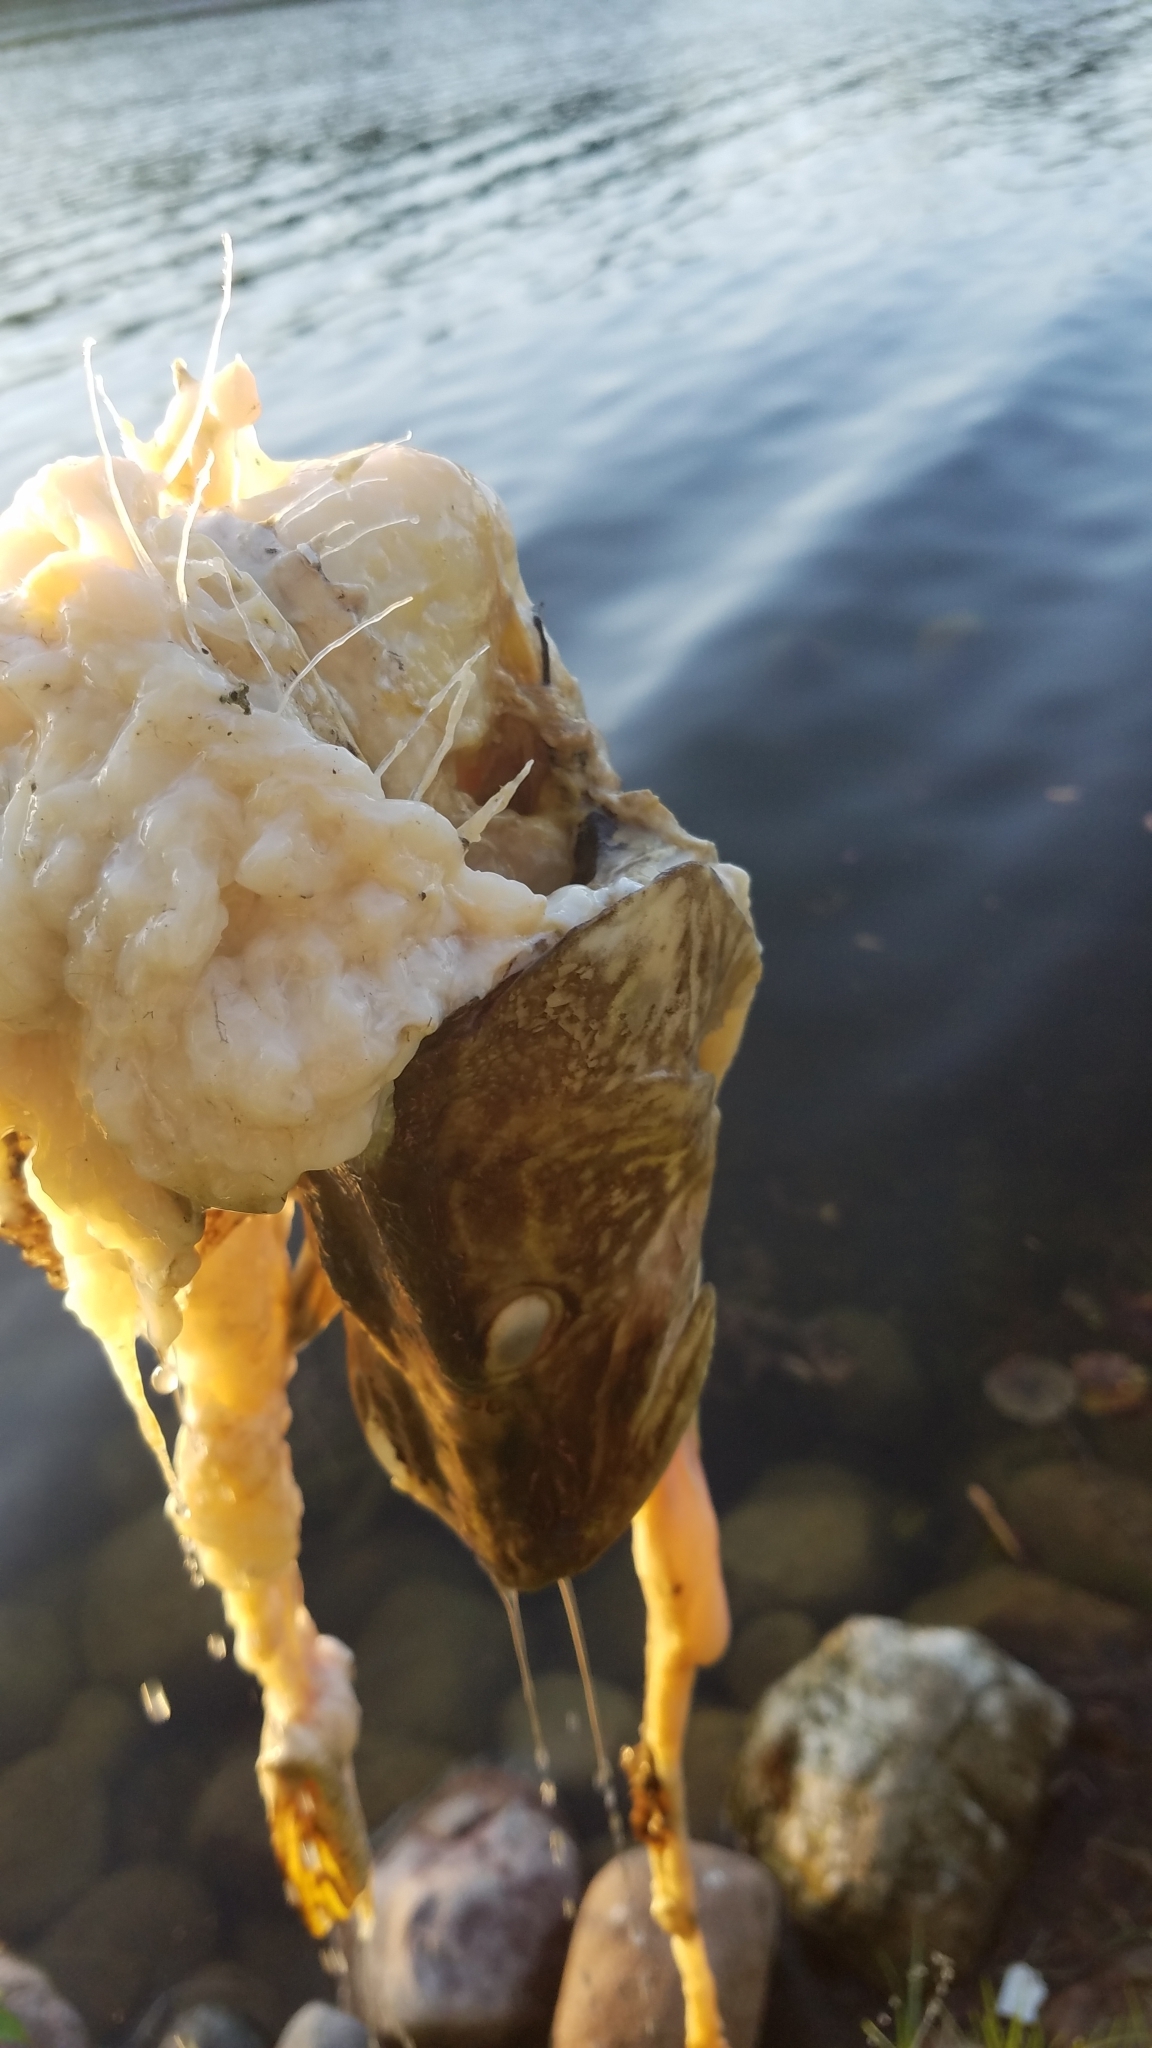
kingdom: Animalia
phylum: Chordata
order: Esociformes
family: Esocidae
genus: Esox
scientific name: Esox lucius
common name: Northern pike
